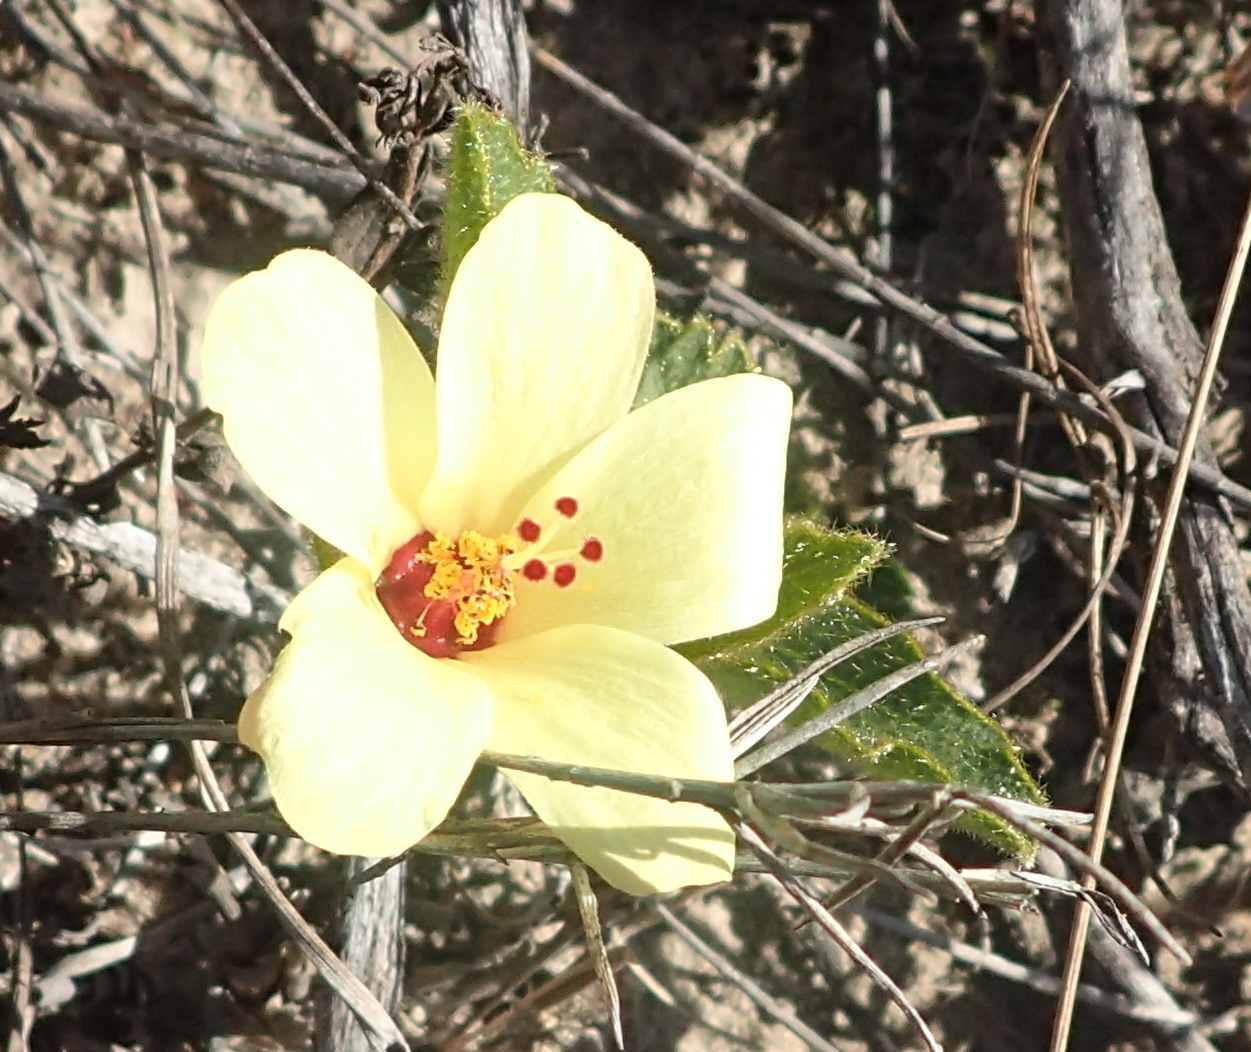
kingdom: Plantae
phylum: Tracheophyta
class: Magnoliopsida
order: Malvales
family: Malvaceae
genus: Hibiscus
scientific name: Hibiscus aethiopicus
